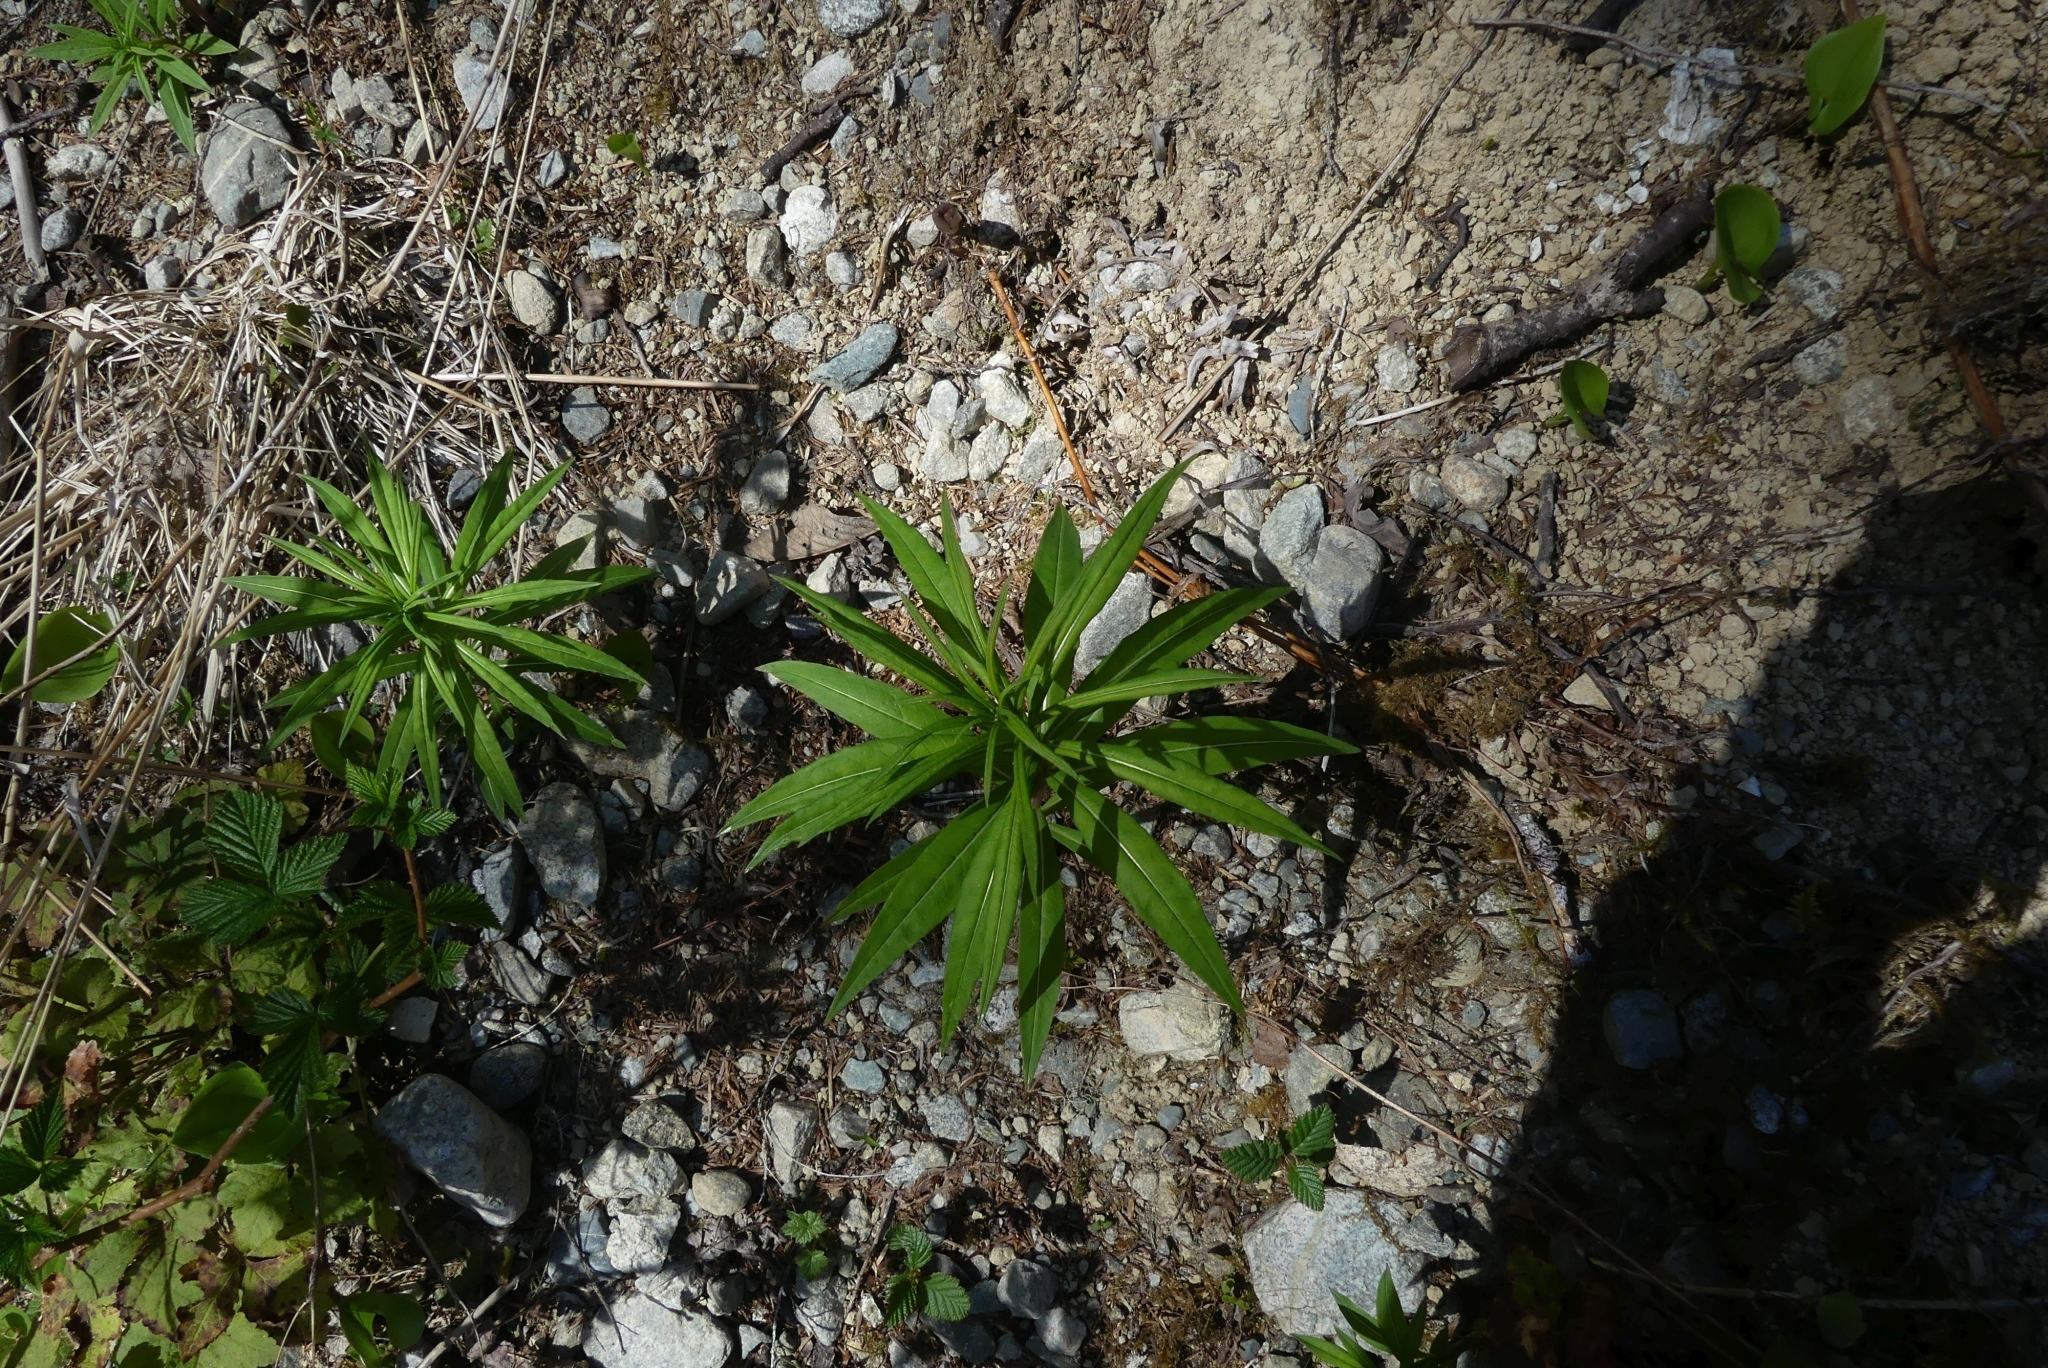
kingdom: Plantae
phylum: Tracheophyta
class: Magnoliopsida
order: Myrtales
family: Onagraceae
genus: Chamaenerion
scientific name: Chamaenerion angustifolium
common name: Fireweed
